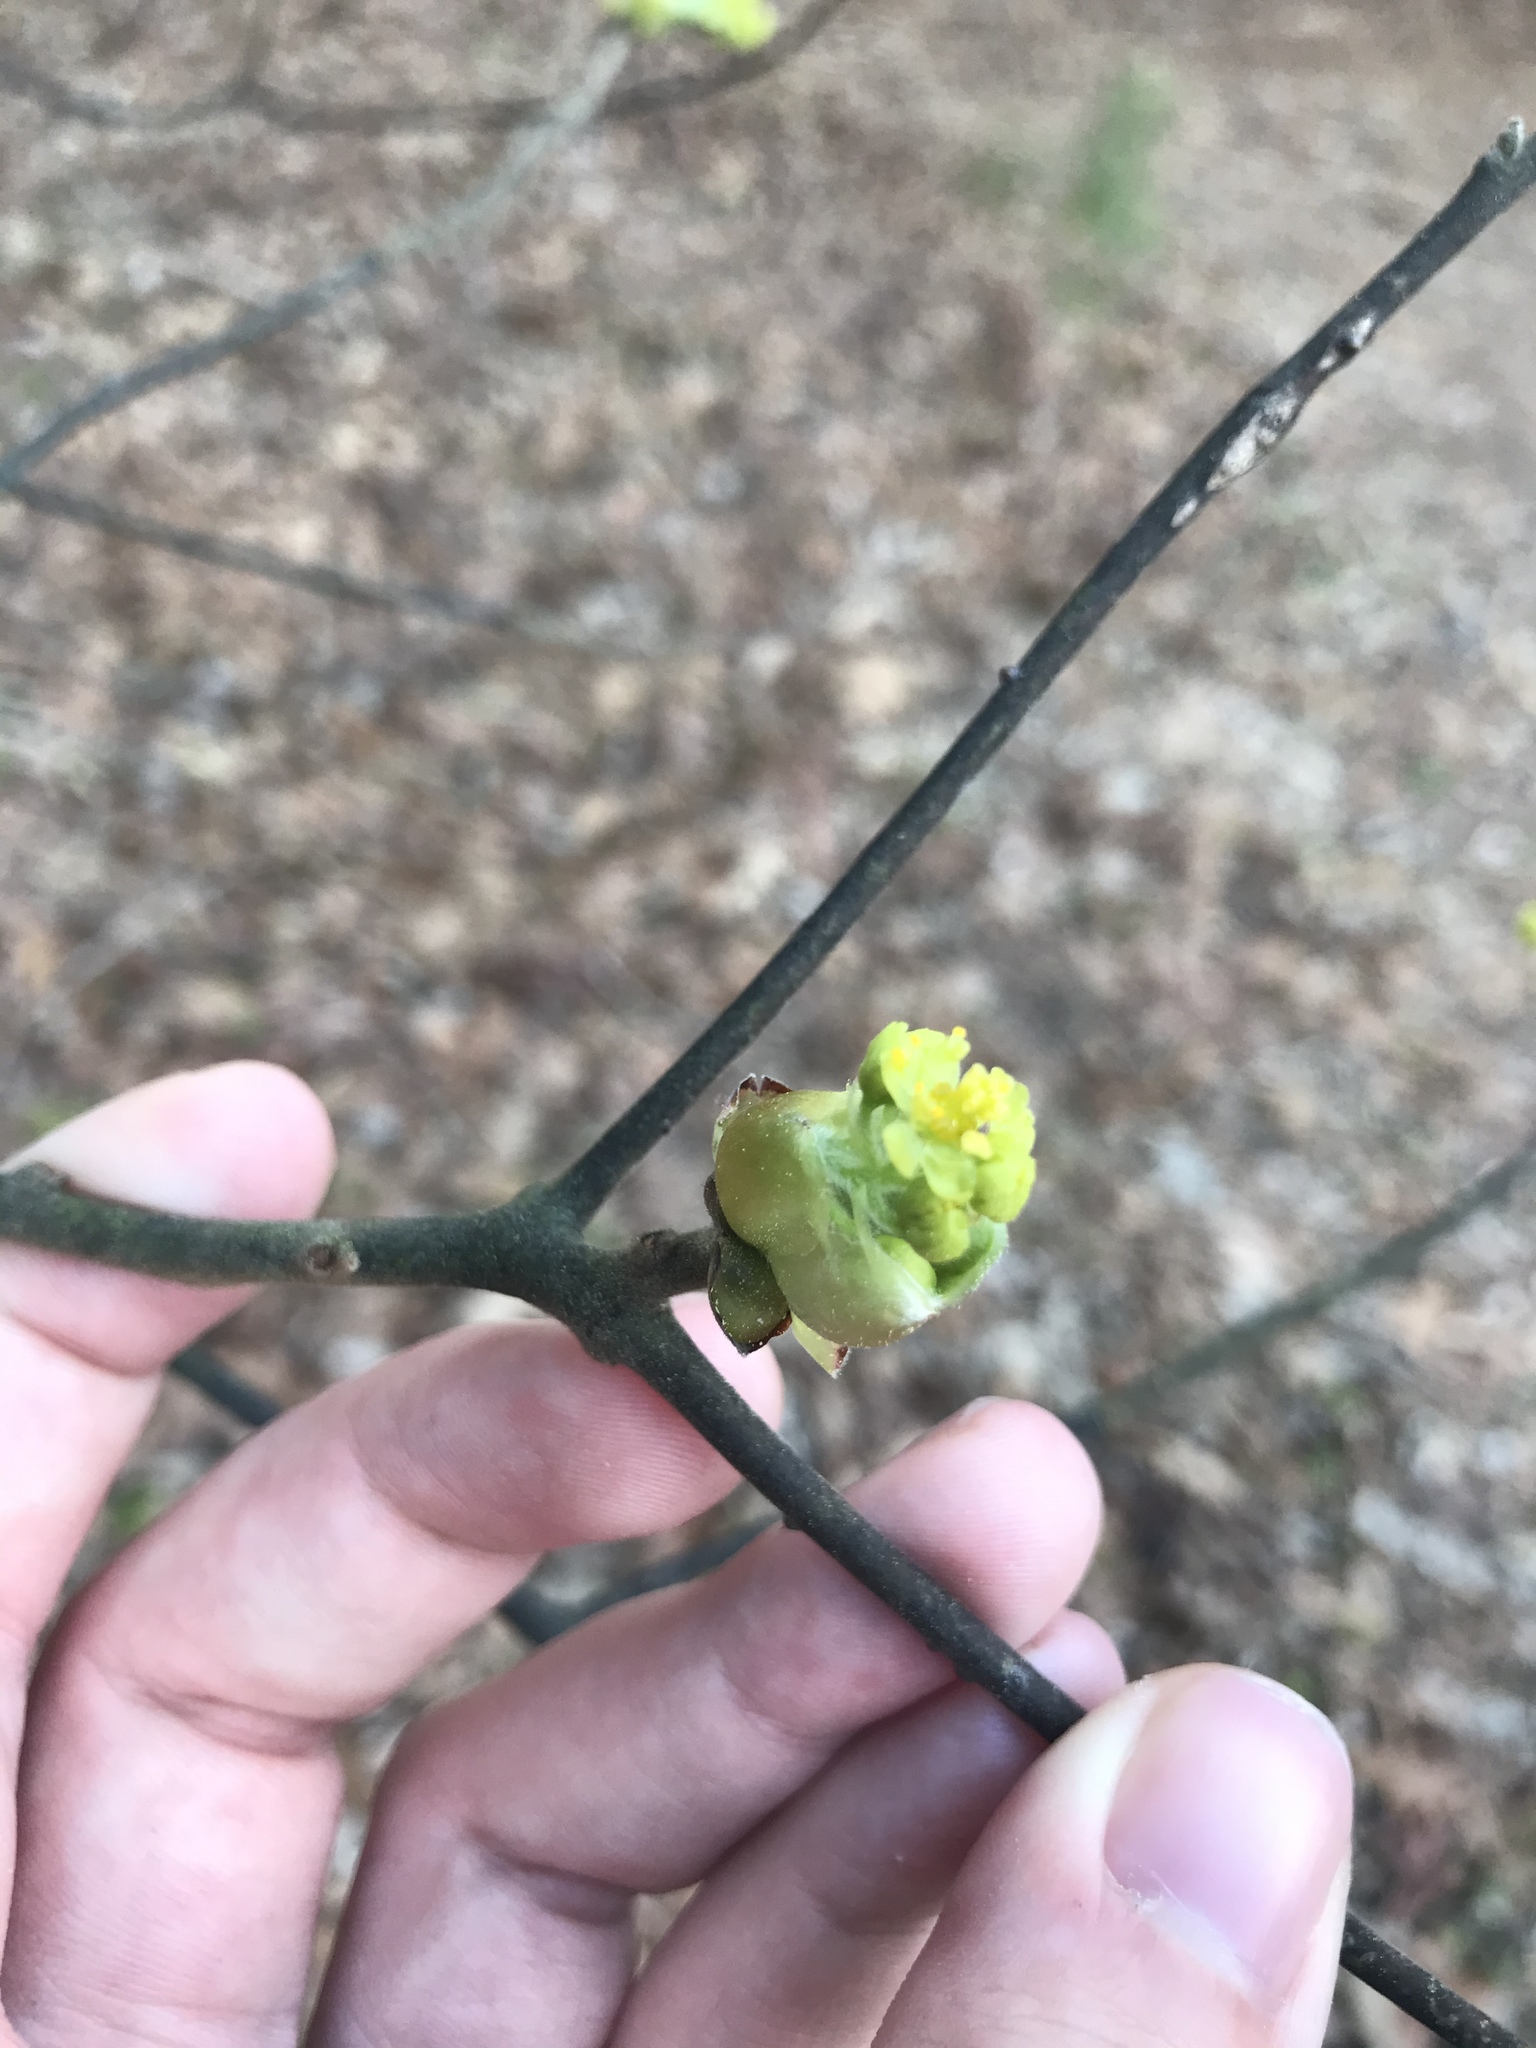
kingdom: Plantae
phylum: Tracheophyta
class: Magnoliopsida
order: Laurales
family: Lauraceae
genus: Sassafras
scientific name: Sassafras albidum
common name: Sassafras
